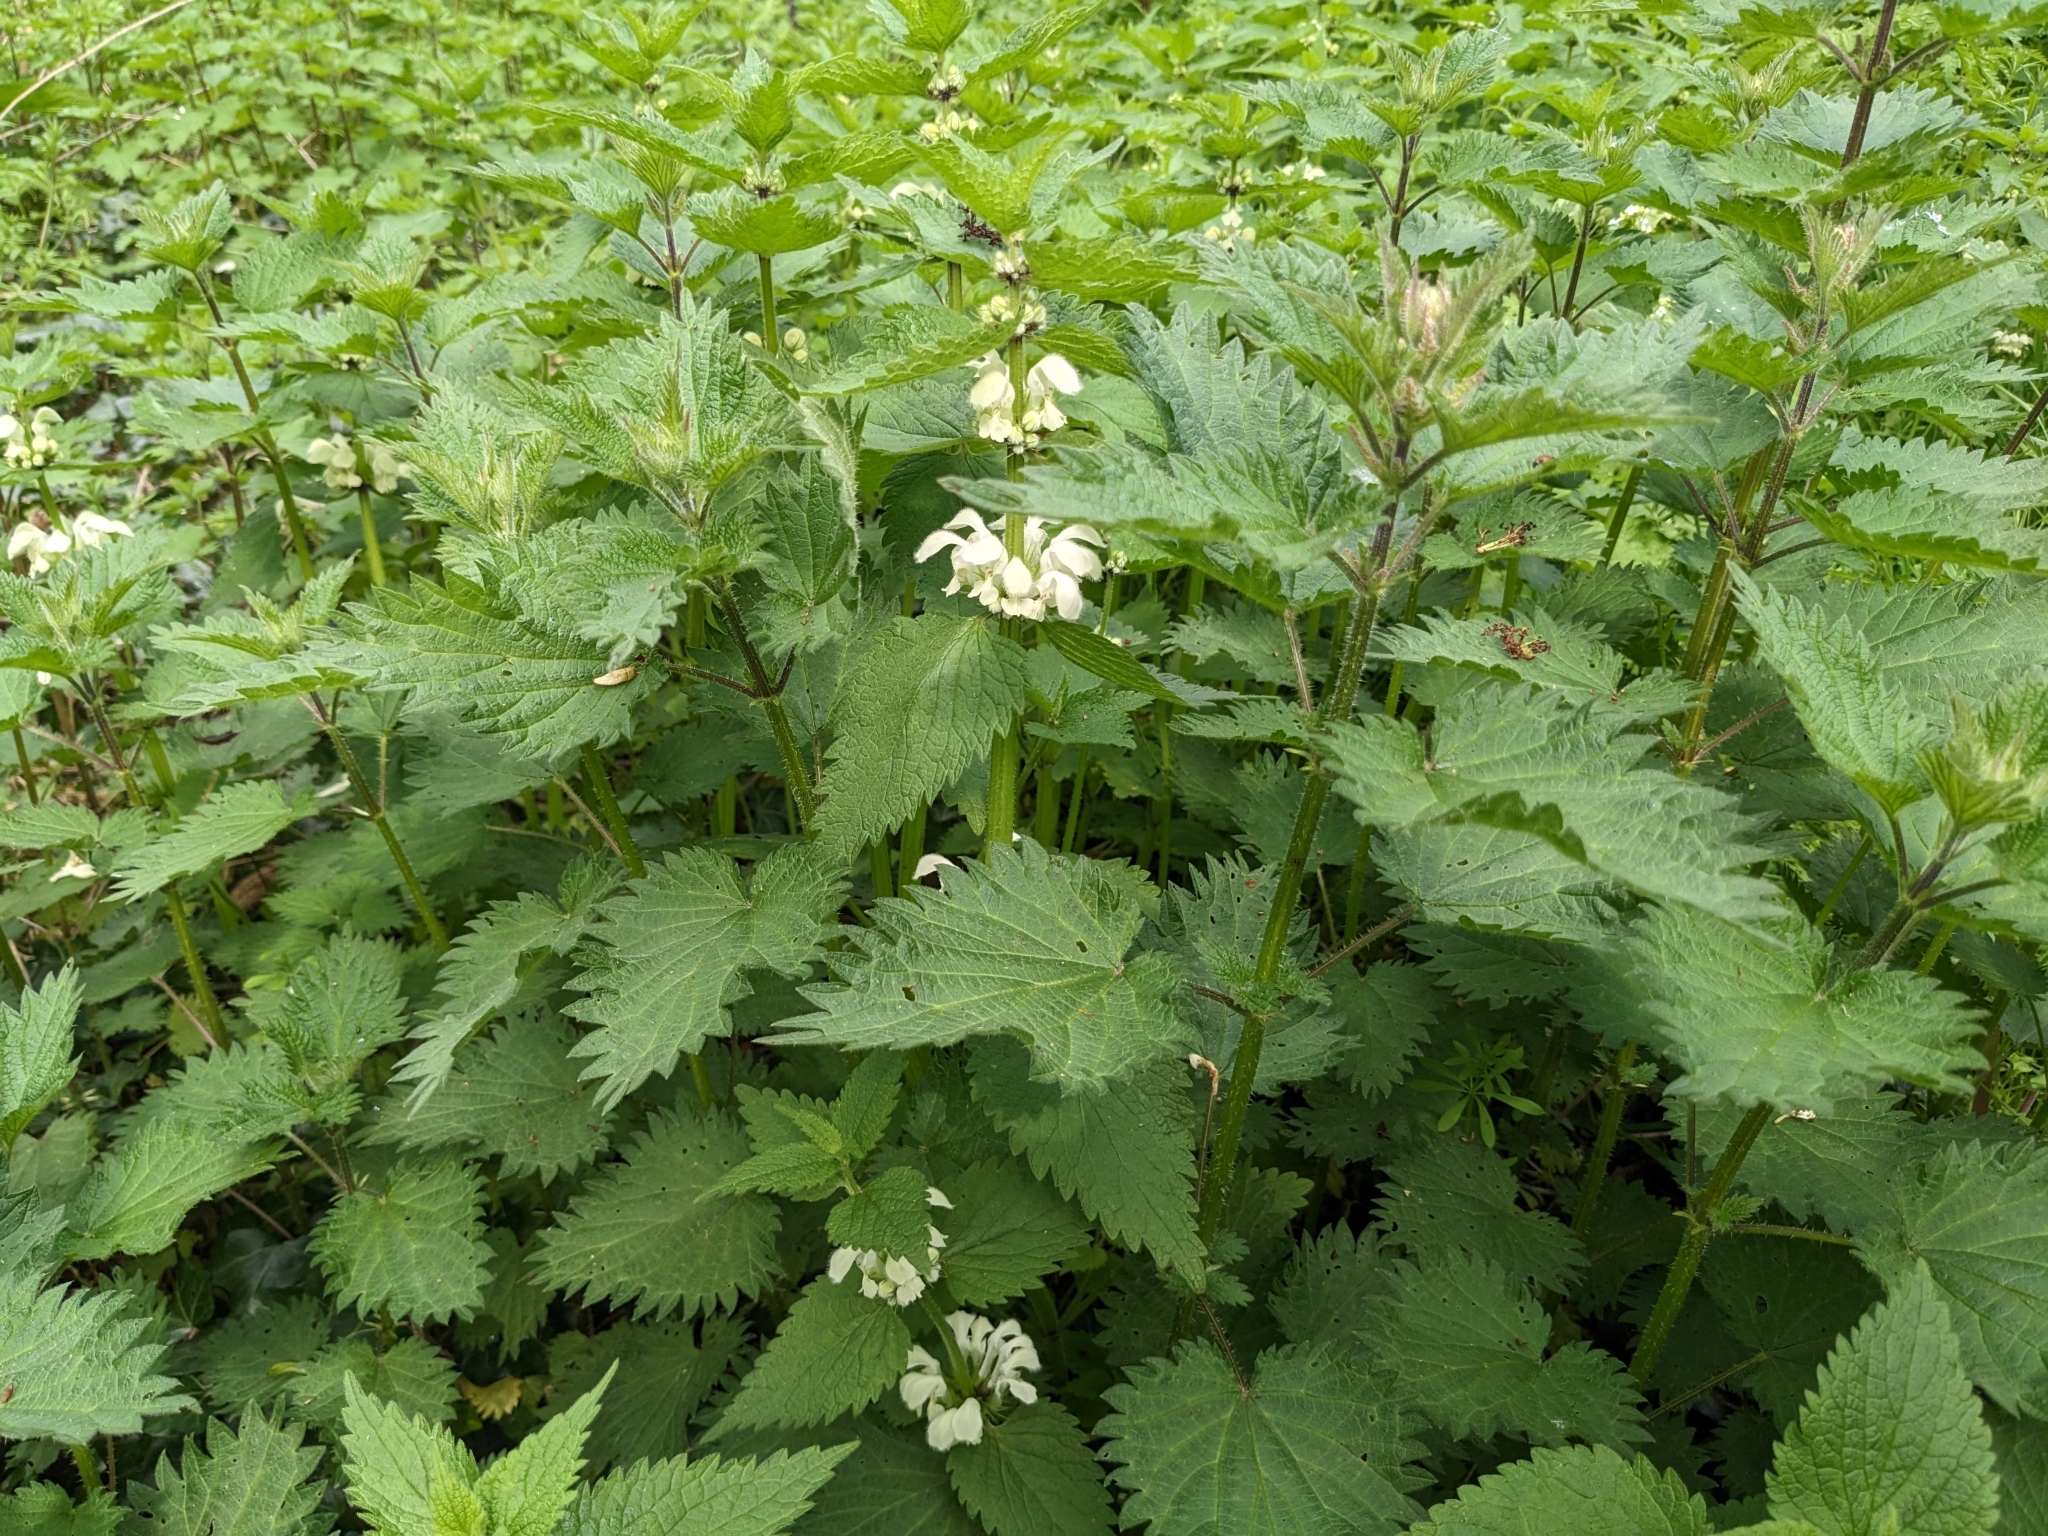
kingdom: Plantae
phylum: Tracheophyta
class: Magnoliopsida
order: Lamiales
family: Lamiaceae
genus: Lamium
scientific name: Lamium album
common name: White dead-nettle
